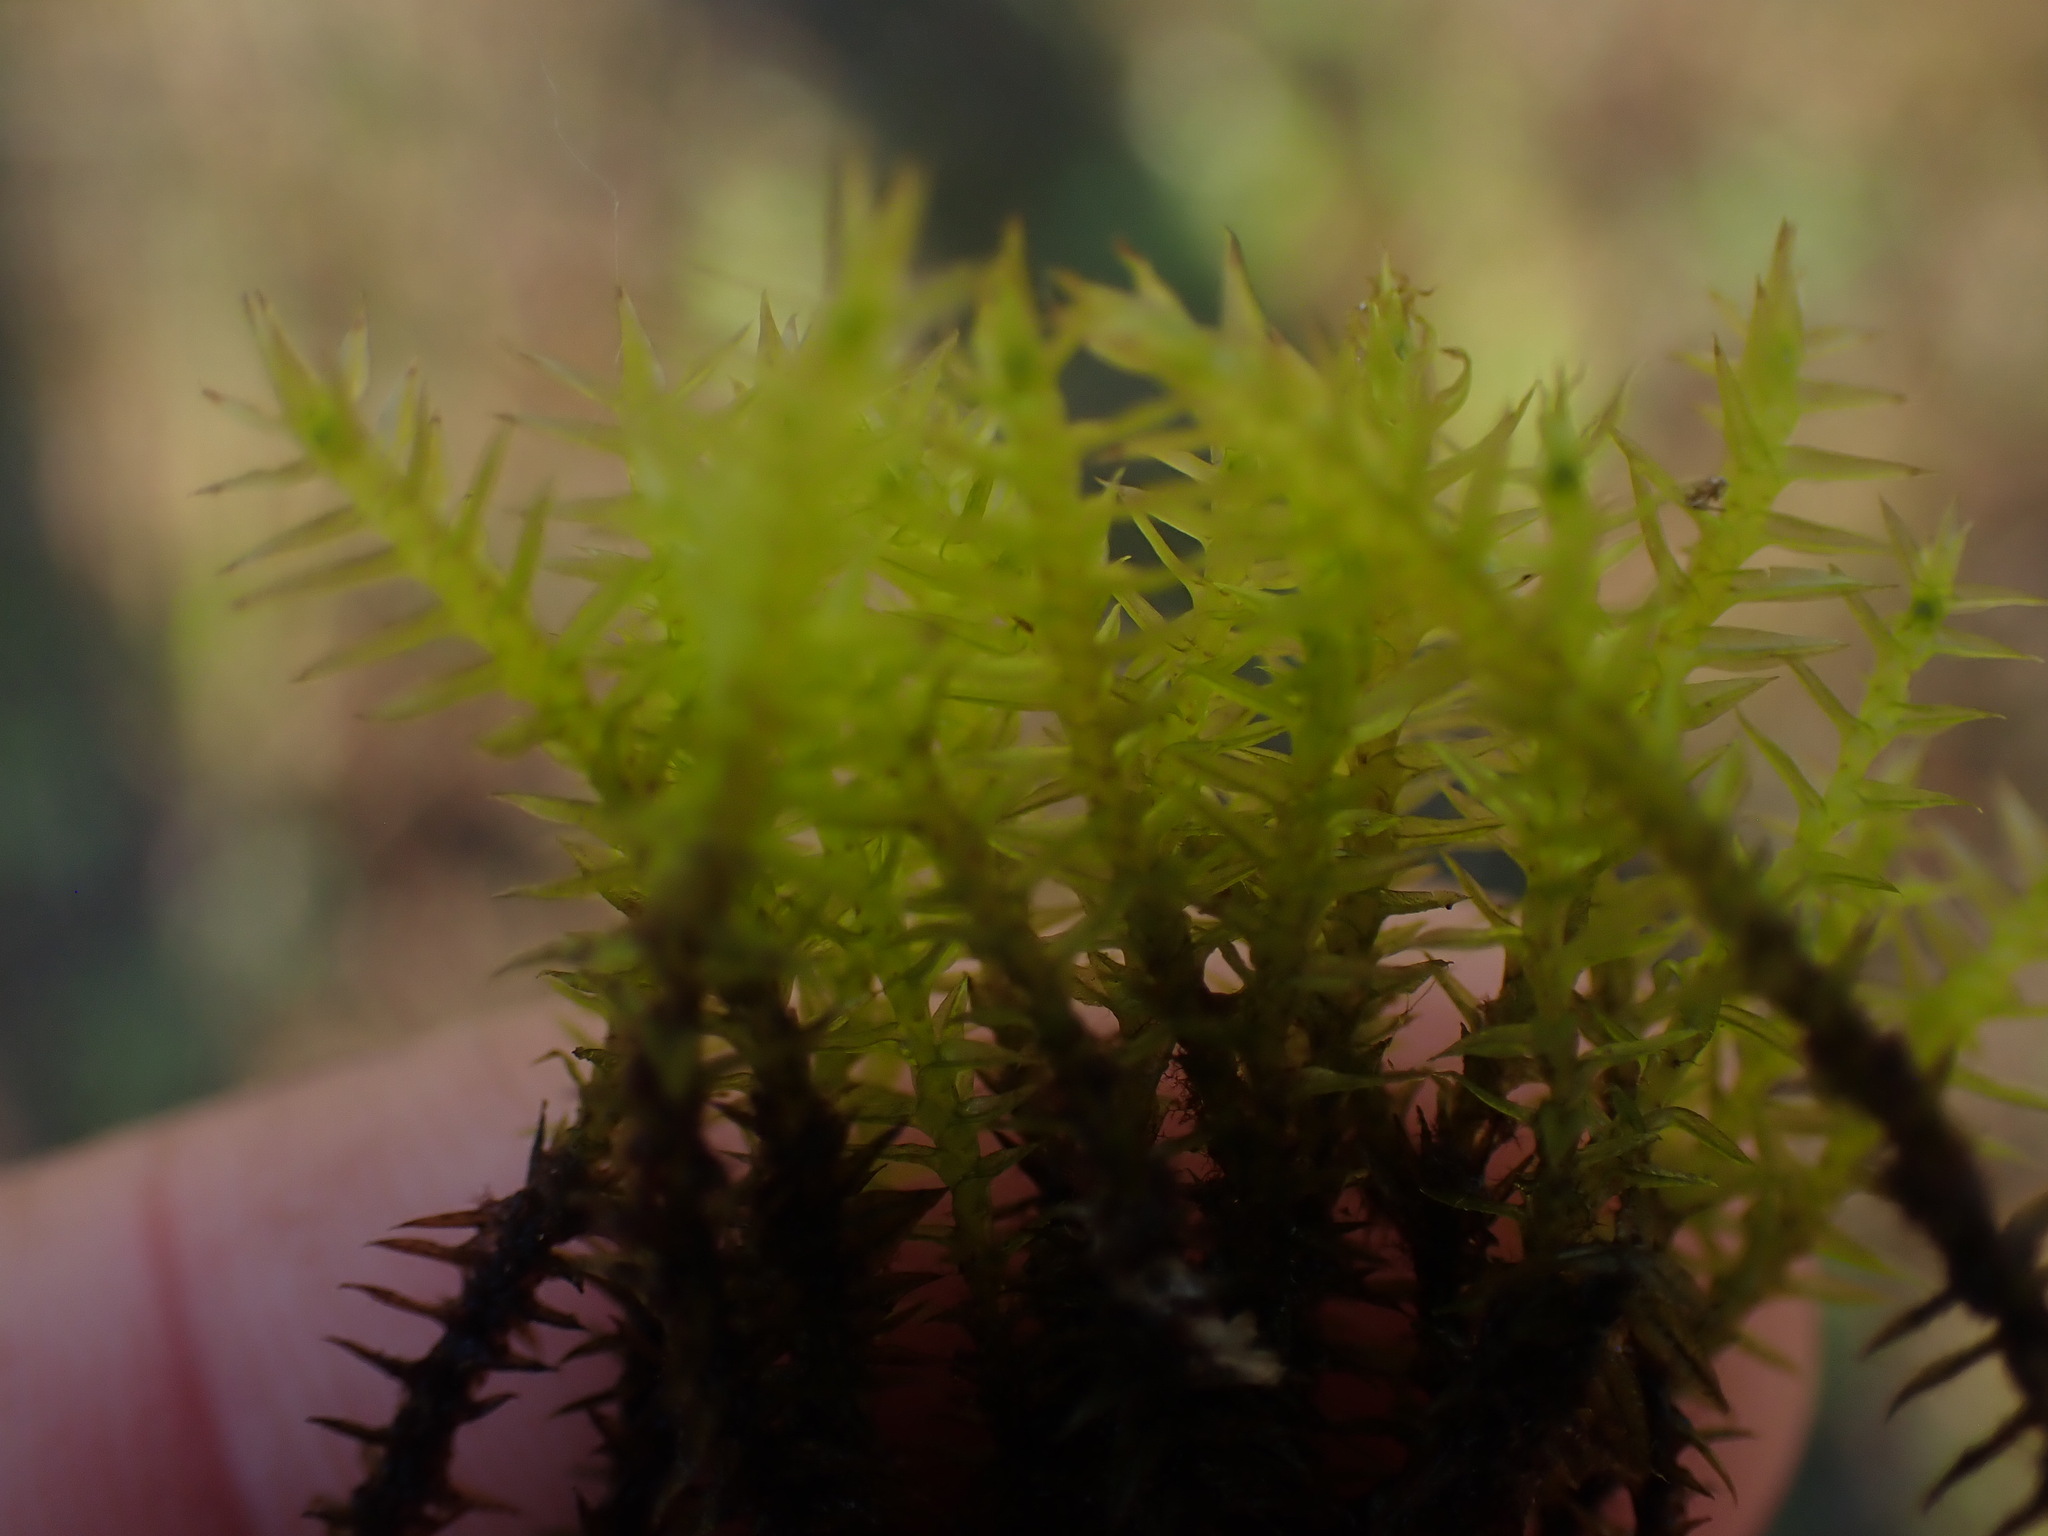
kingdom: Plantae
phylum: Bryophyta
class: Bryopsida
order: Splachnales
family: Meesiaceae
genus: Meesia
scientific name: Meesia triquetra
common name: Three-angled thread moss
